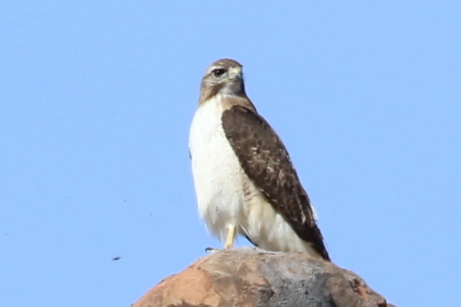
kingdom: Animalia
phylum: Chordata
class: Aves
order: Accipitriformes
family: Accipitridae
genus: Buteo
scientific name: Buteo jamaicensis
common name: Red-tailed hawk
